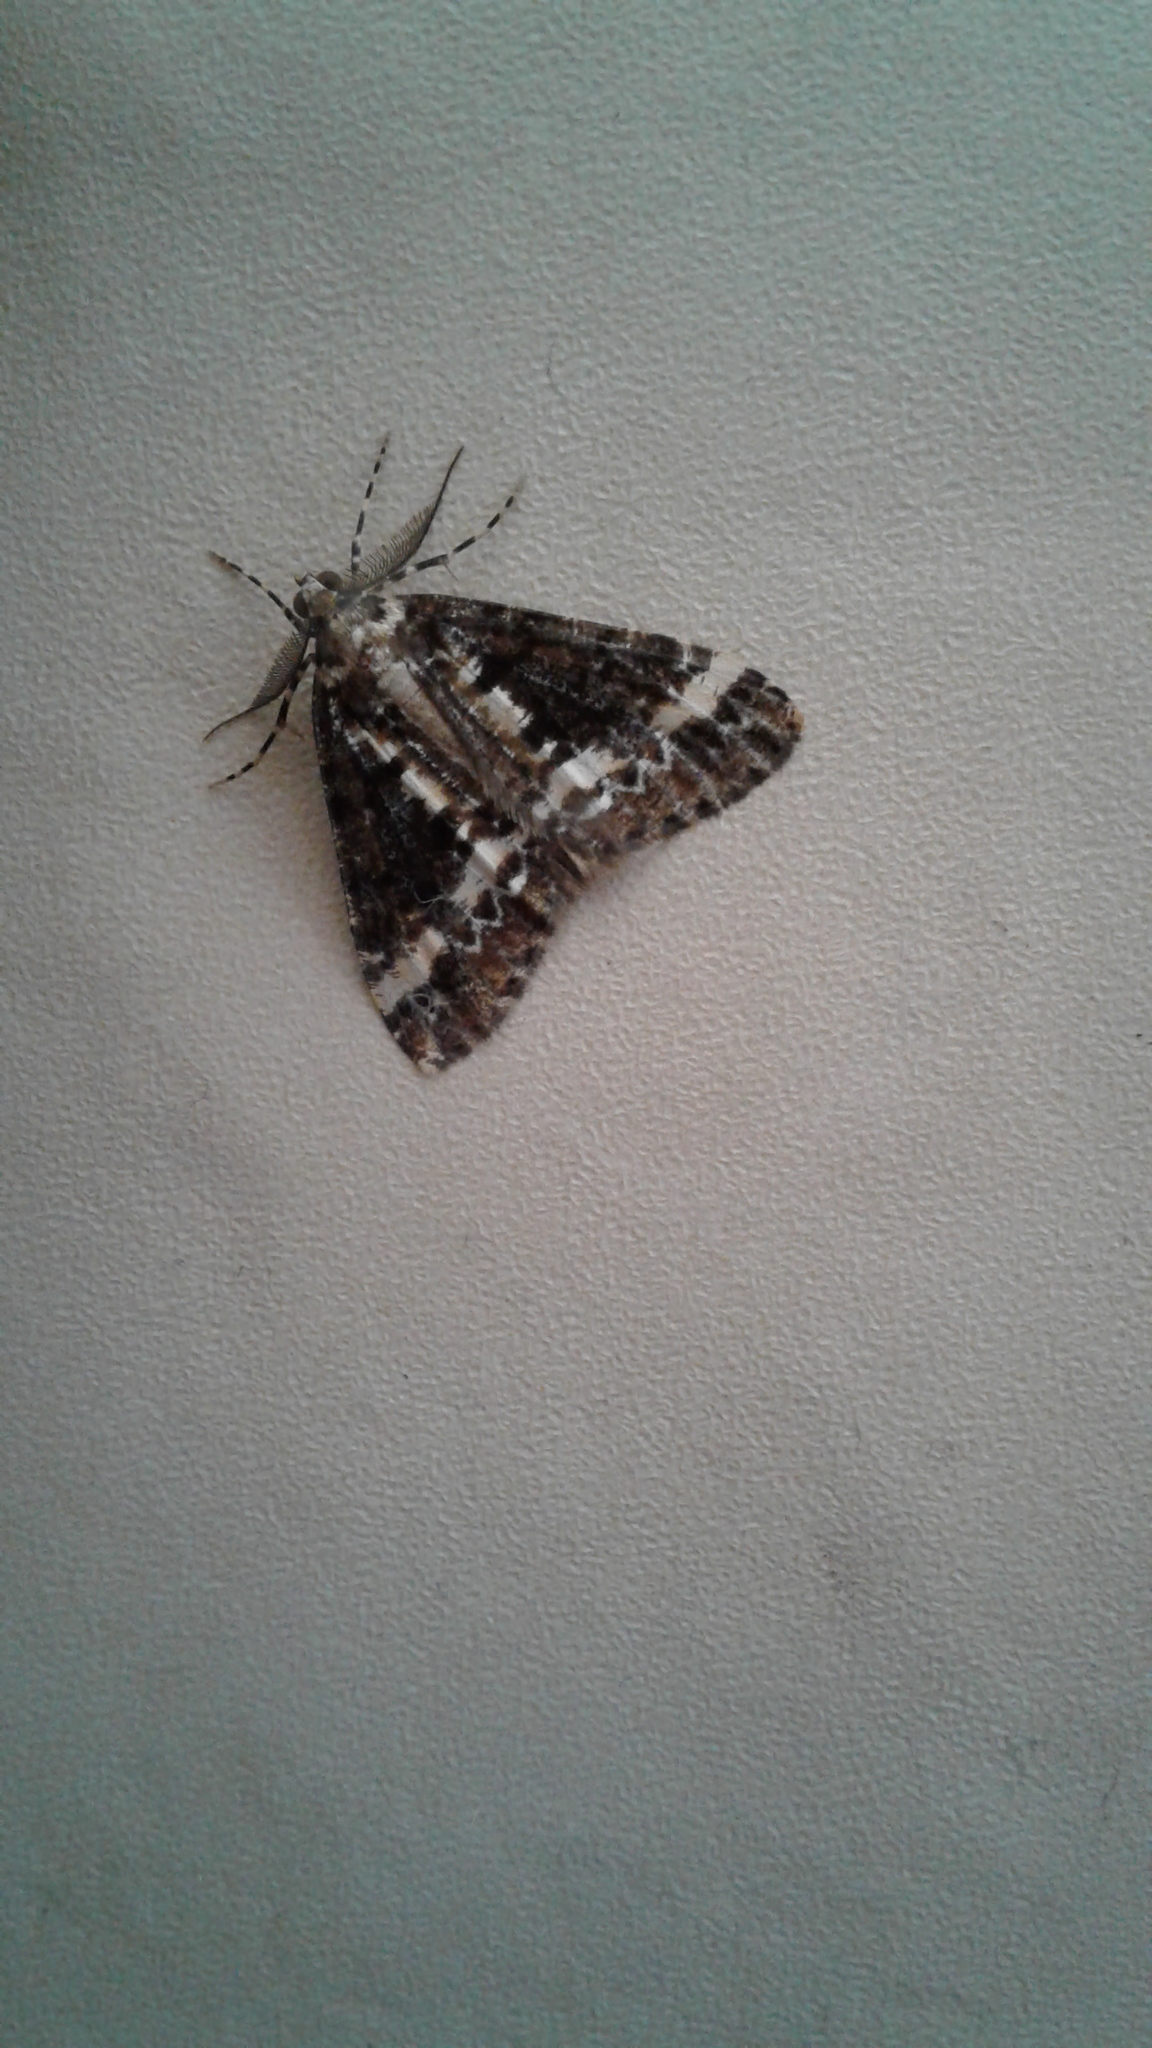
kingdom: Animalia
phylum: Arthropoda
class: Insecta
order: Lepidoptera
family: Geometridae
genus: Pseudocoremia
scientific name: Pseudocoremia leucelaea
